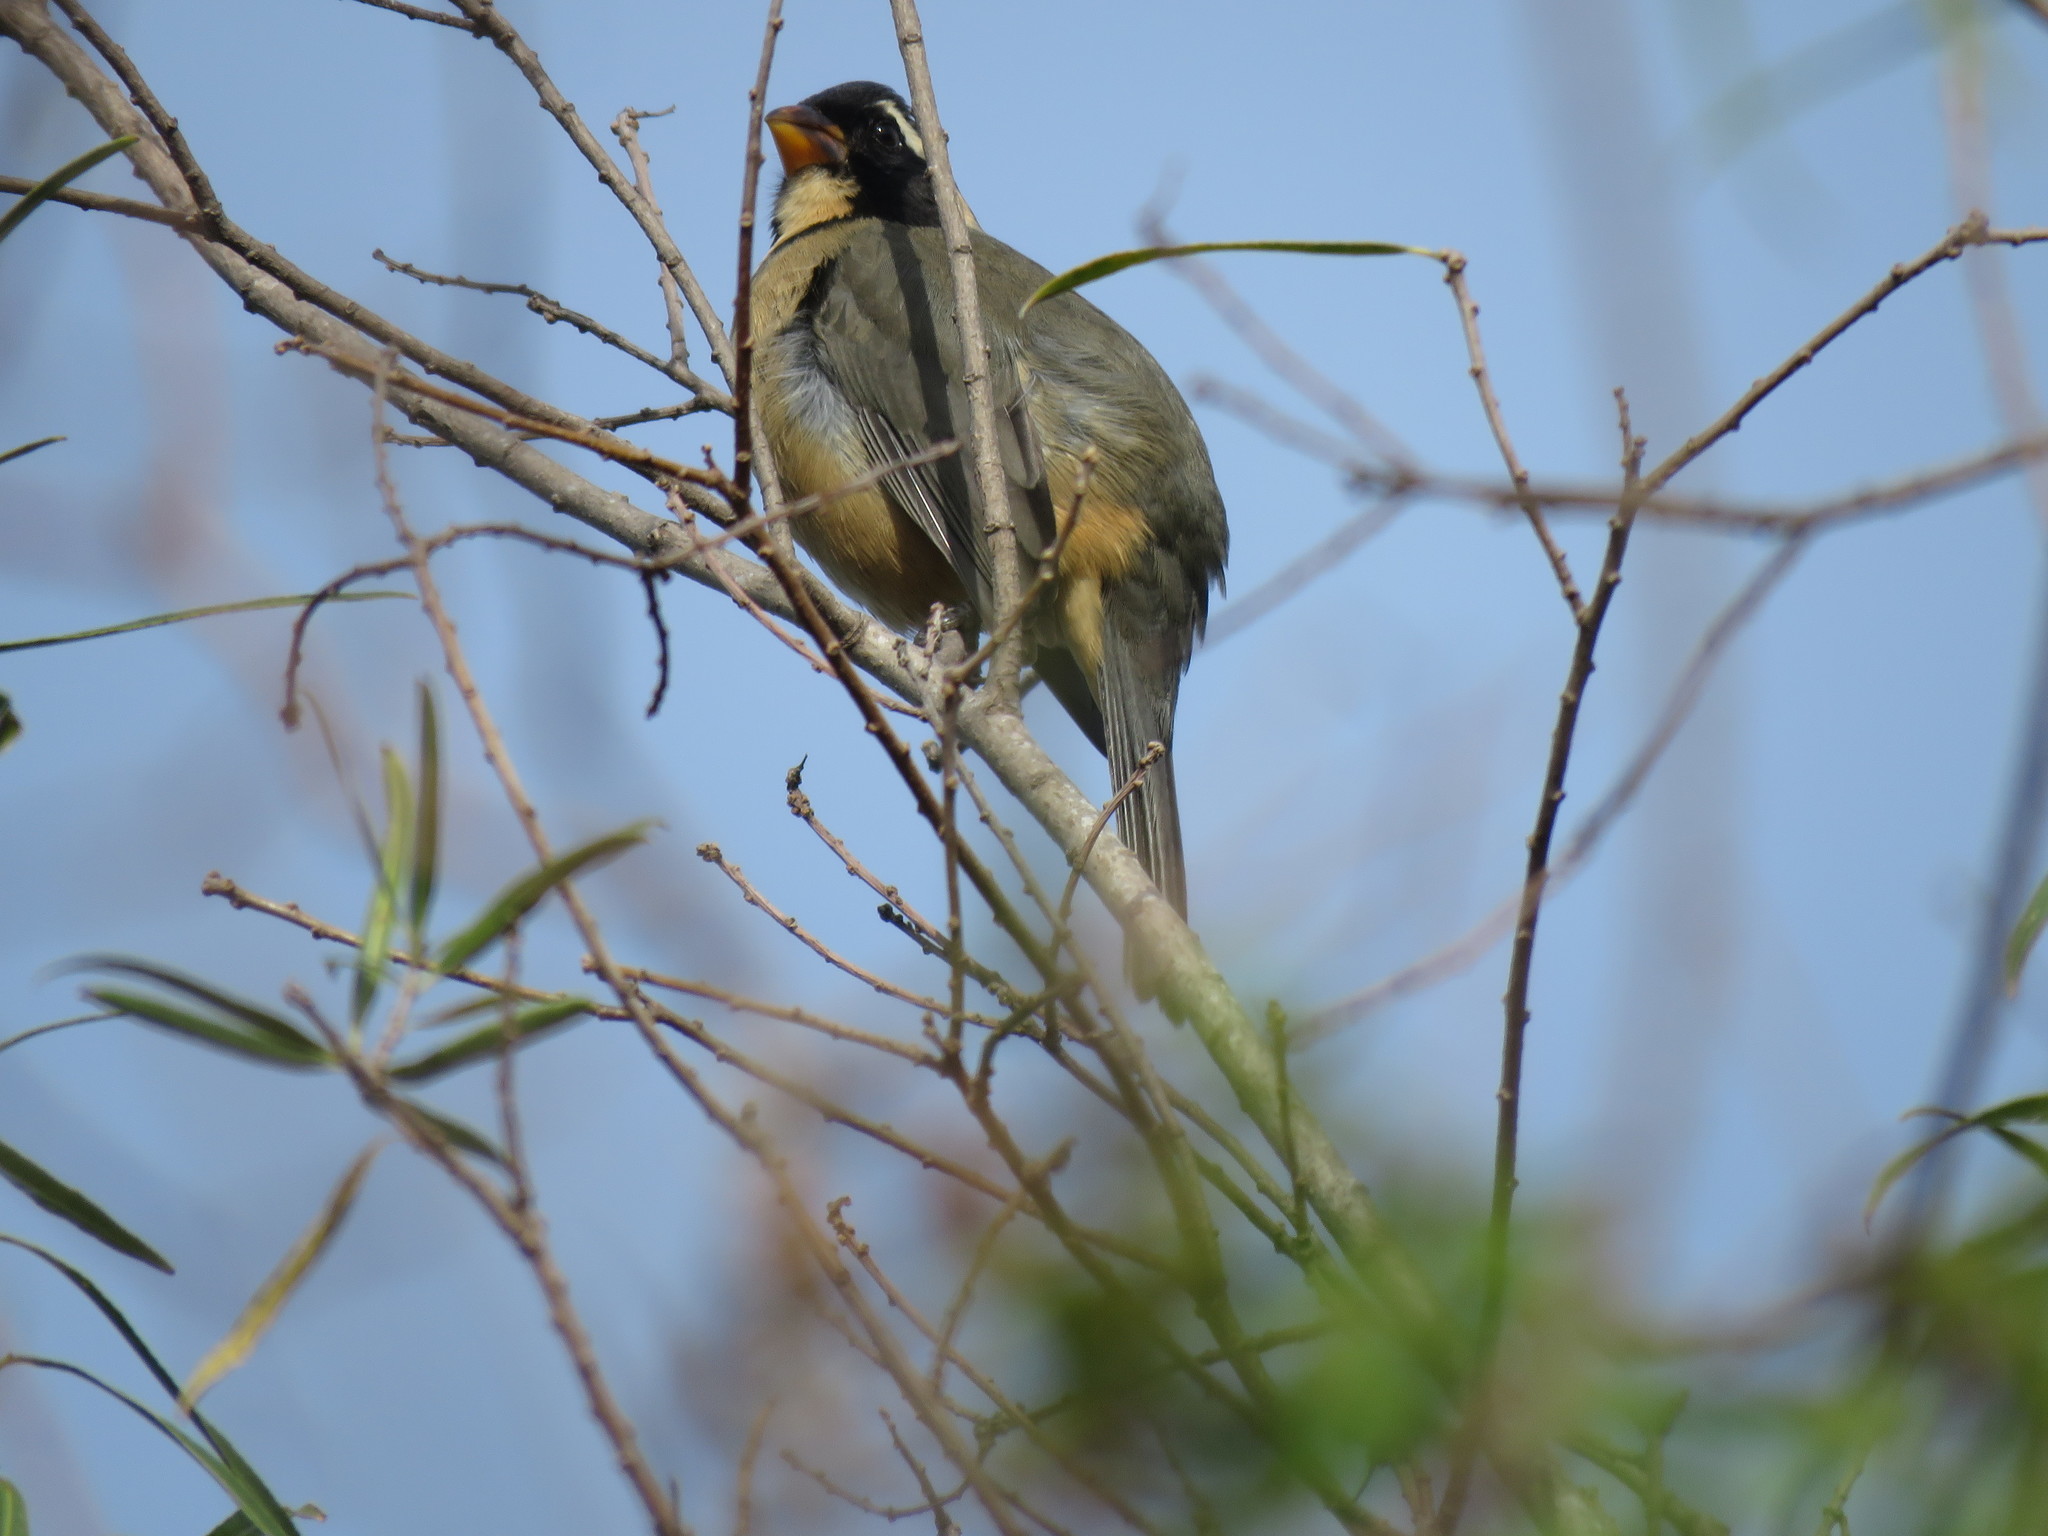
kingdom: Animalia
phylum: Chordata
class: Aves
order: Passeriformes
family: Thraupidae
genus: Saltator
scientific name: Saltator aurantiirostris
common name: Golden-billed saltator
